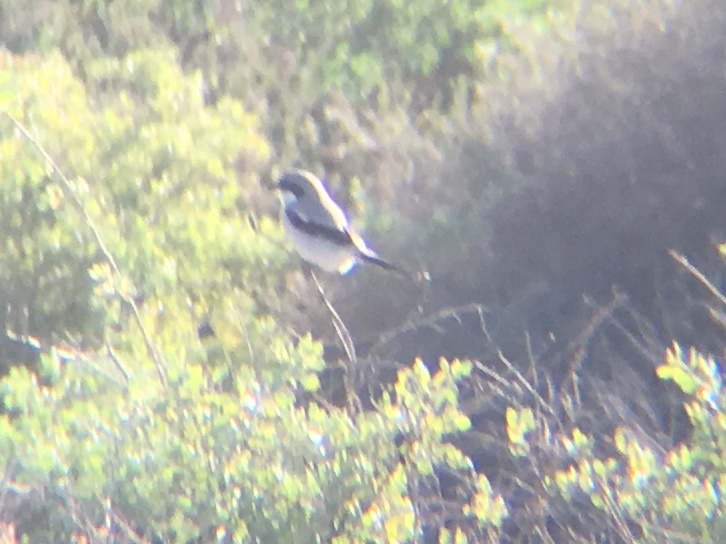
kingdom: Animalia
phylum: Chordata
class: Aves
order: Passeriformes
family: Laniidae
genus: Lanius
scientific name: Lanius ludovicianus
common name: Loggerhead shrike
